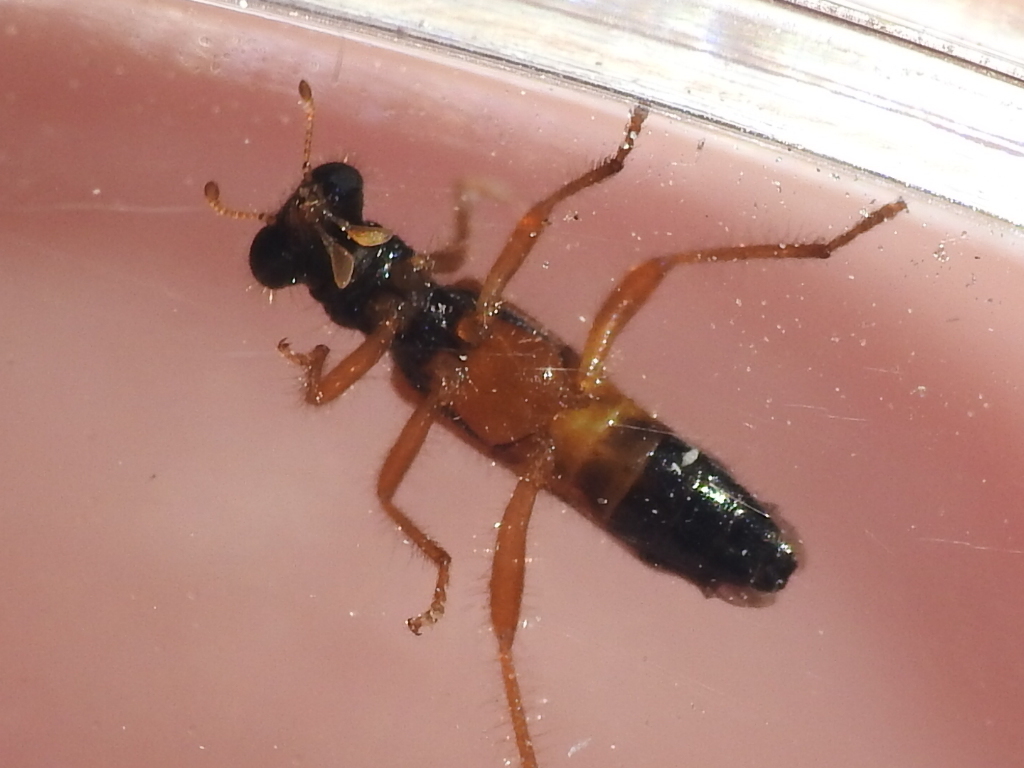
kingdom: Animalia
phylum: Arthropoda
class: Insecta
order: Coleoptera
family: Cleridae
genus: Isohydnocera
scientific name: Isohydnocera schusteri
